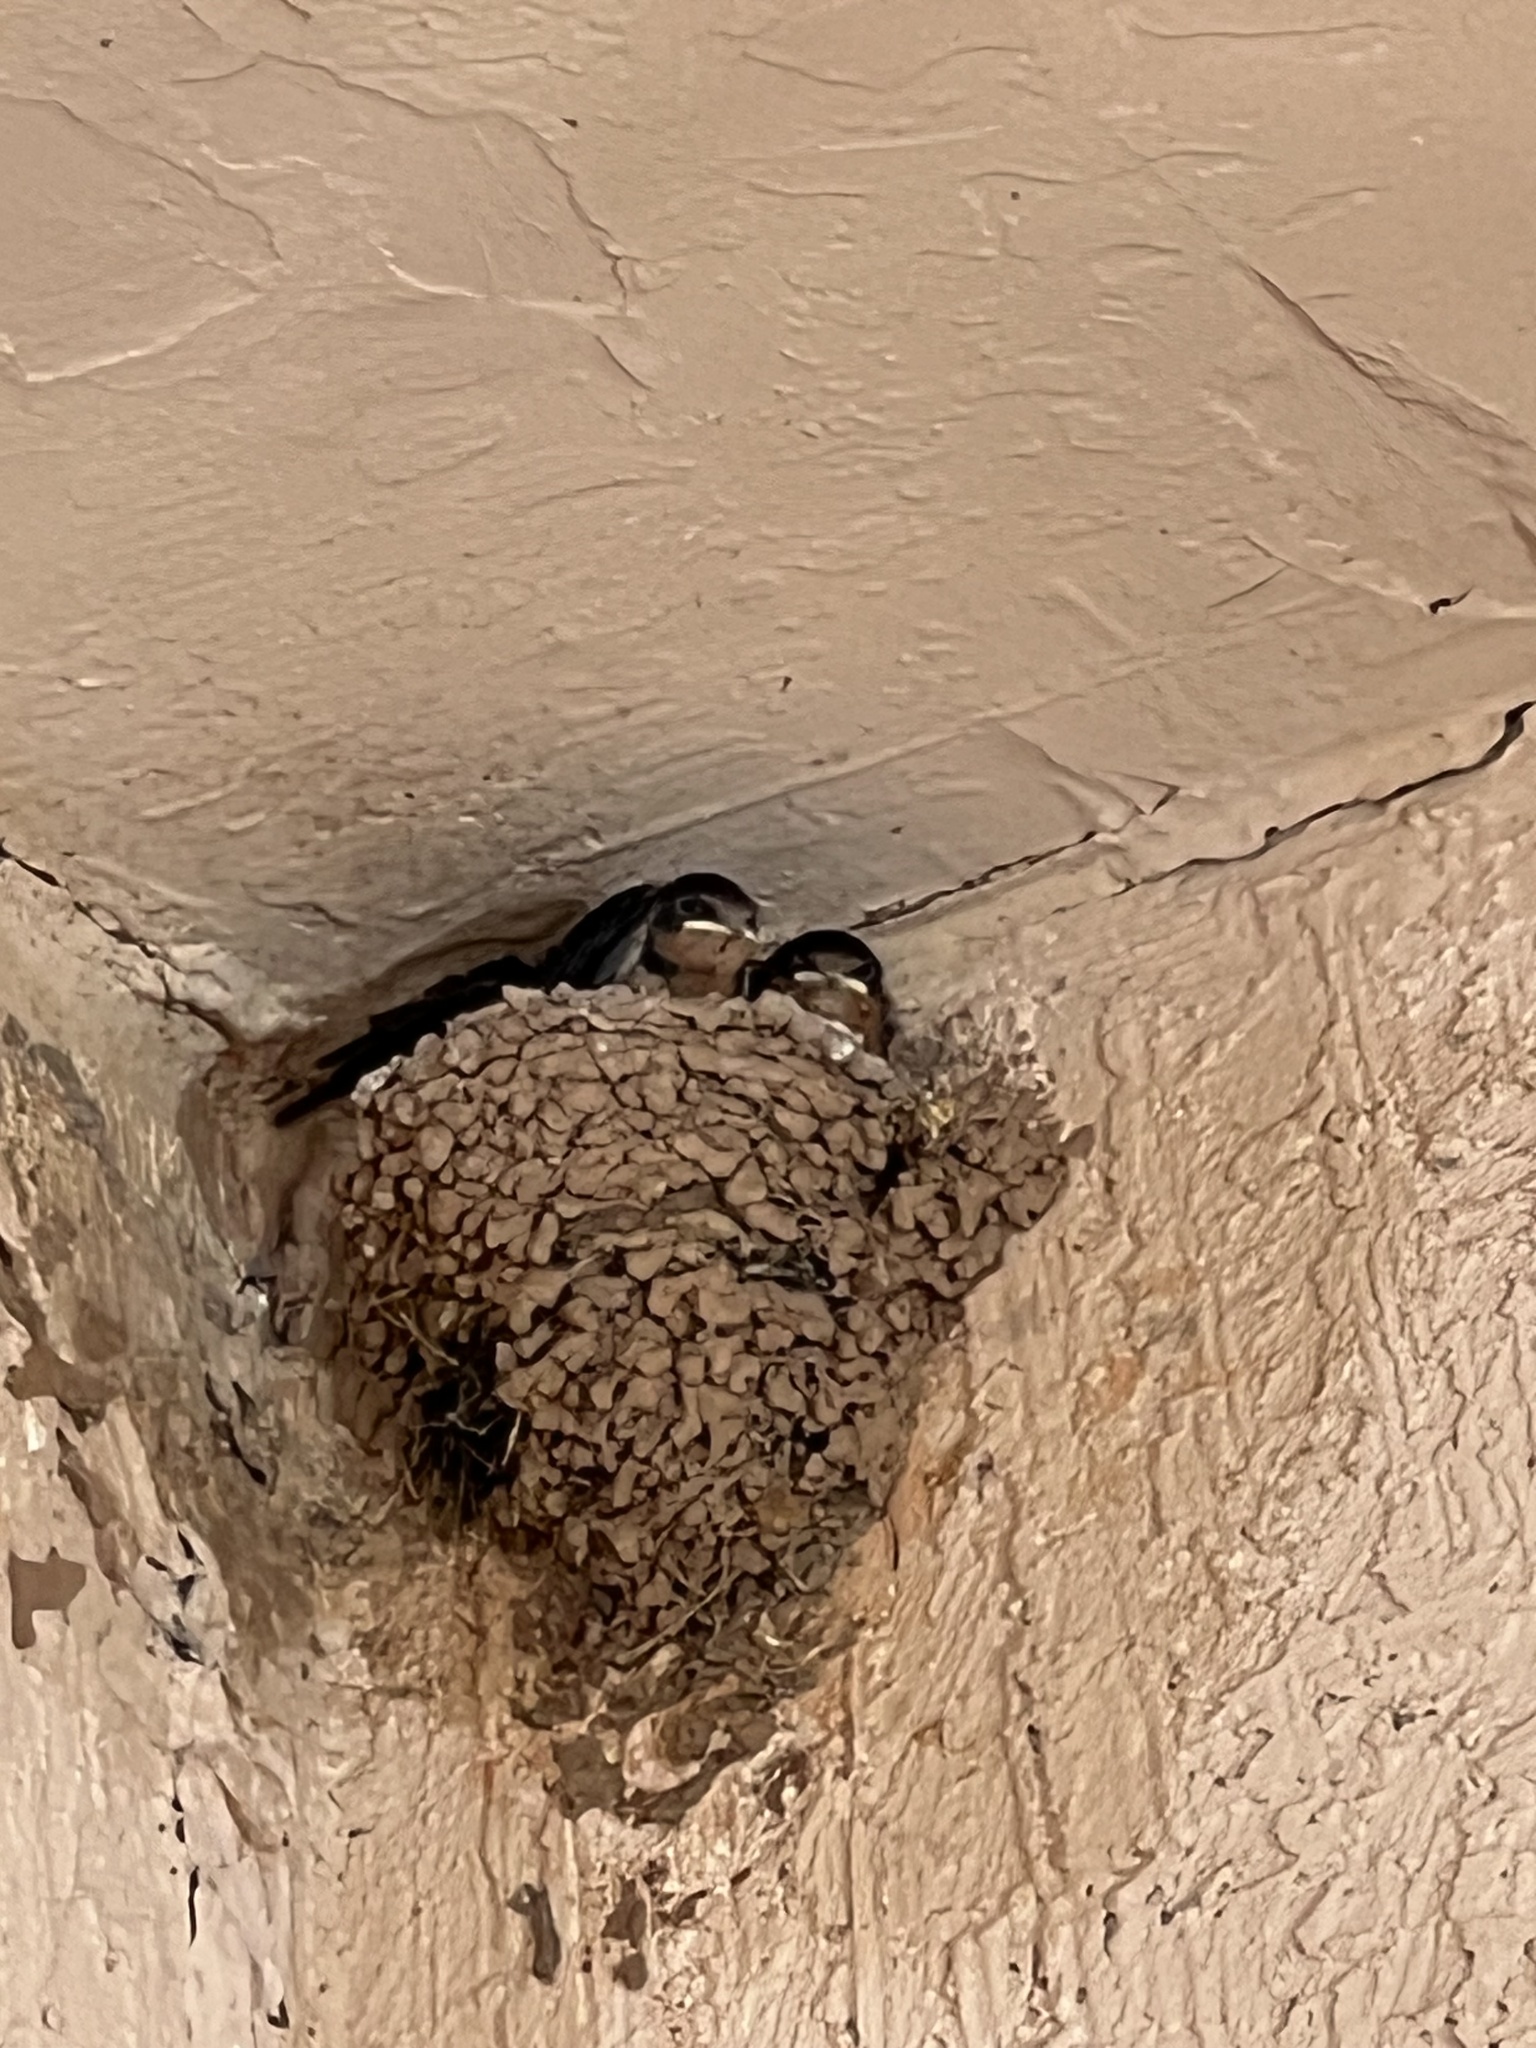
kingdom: Animalia
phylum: Chordata
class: Aves
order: Passeriformes
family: Hirundinidae
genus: Hirundo
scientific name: Hirundo rustica
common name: Barn swallow
